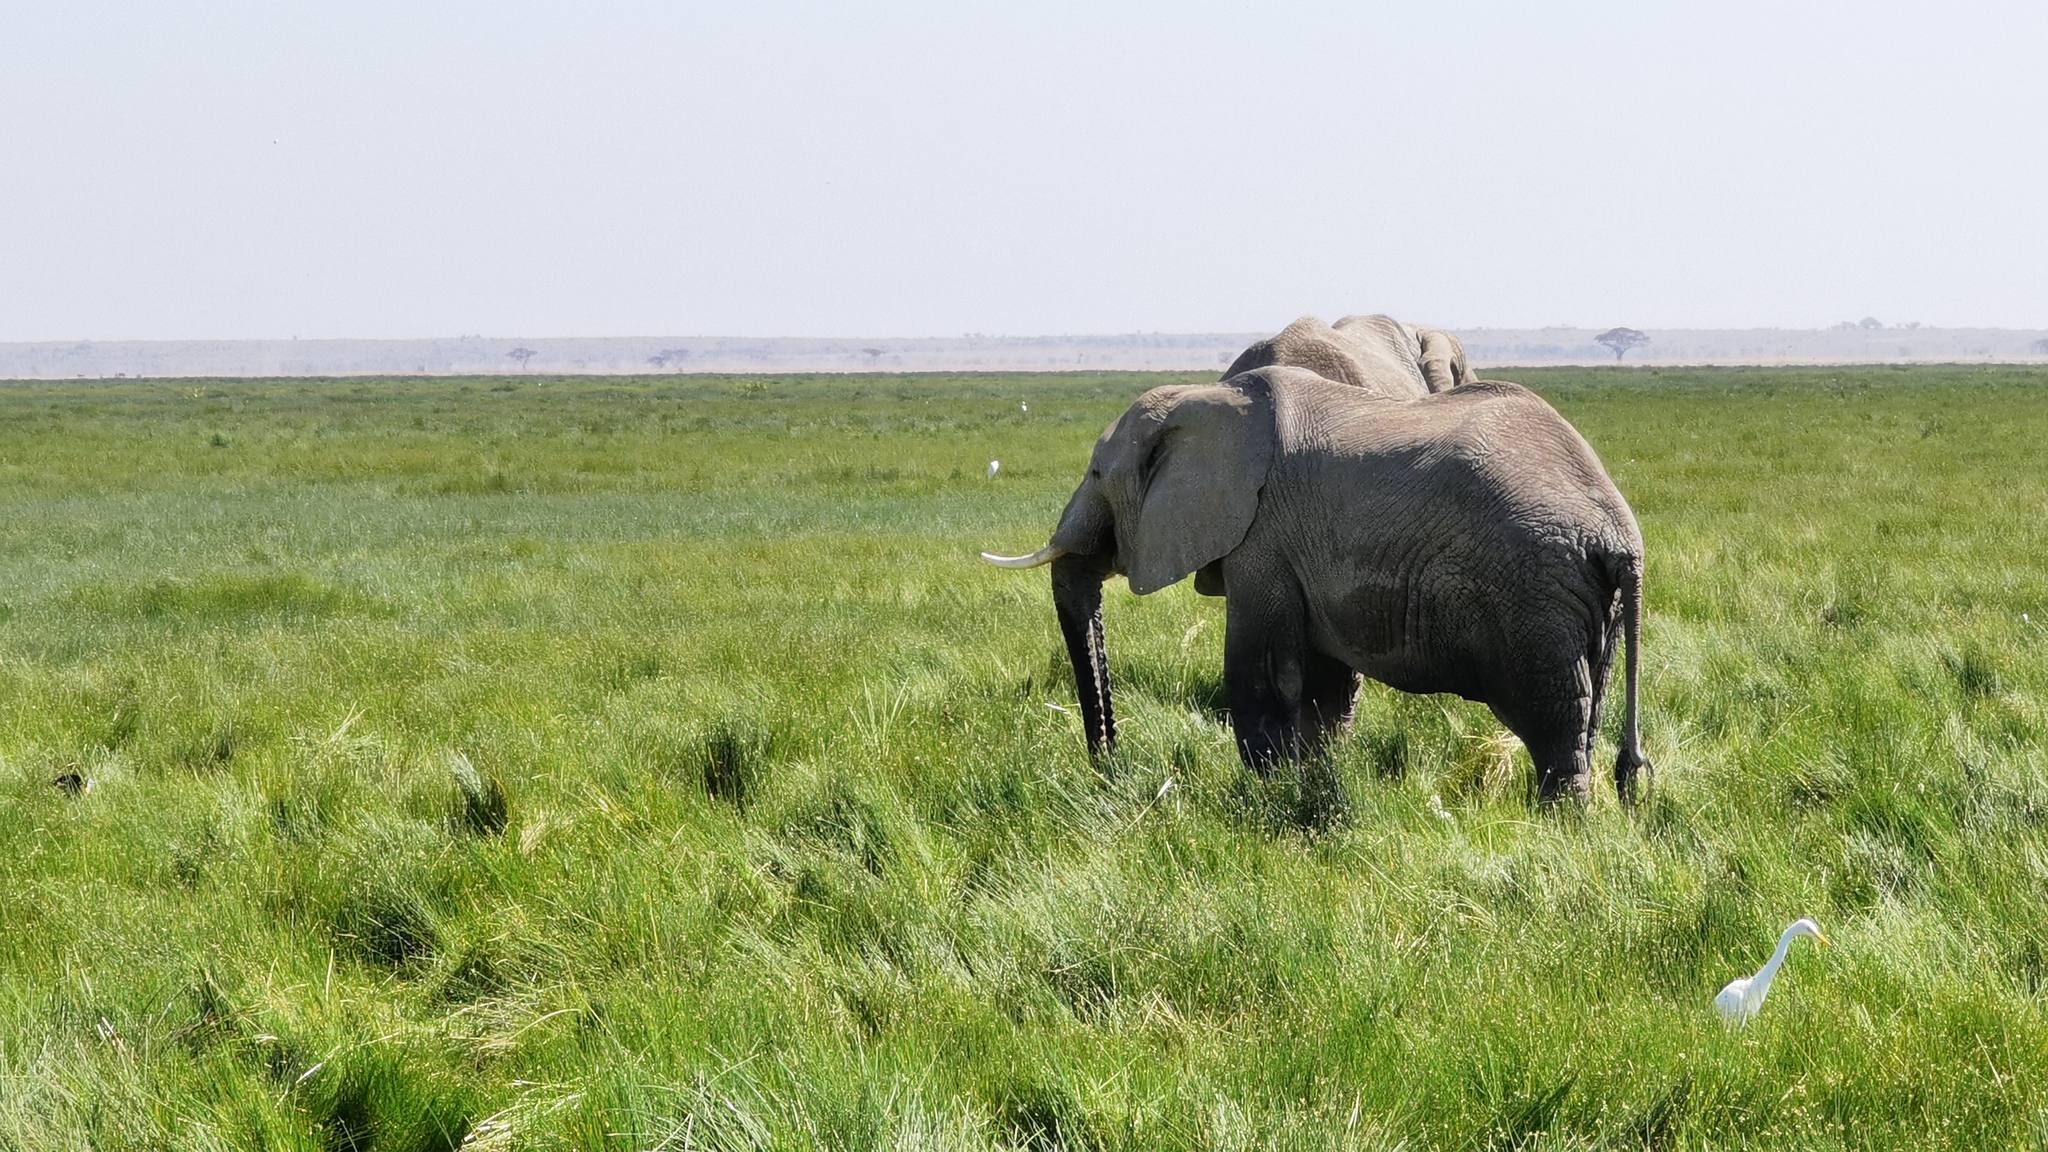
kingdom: Animalia
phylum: Chordata
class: Mammalia
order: Proboscidea
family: Elephantidae
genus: Loxodonta
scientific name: Loxodonta africana
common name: African elephant
